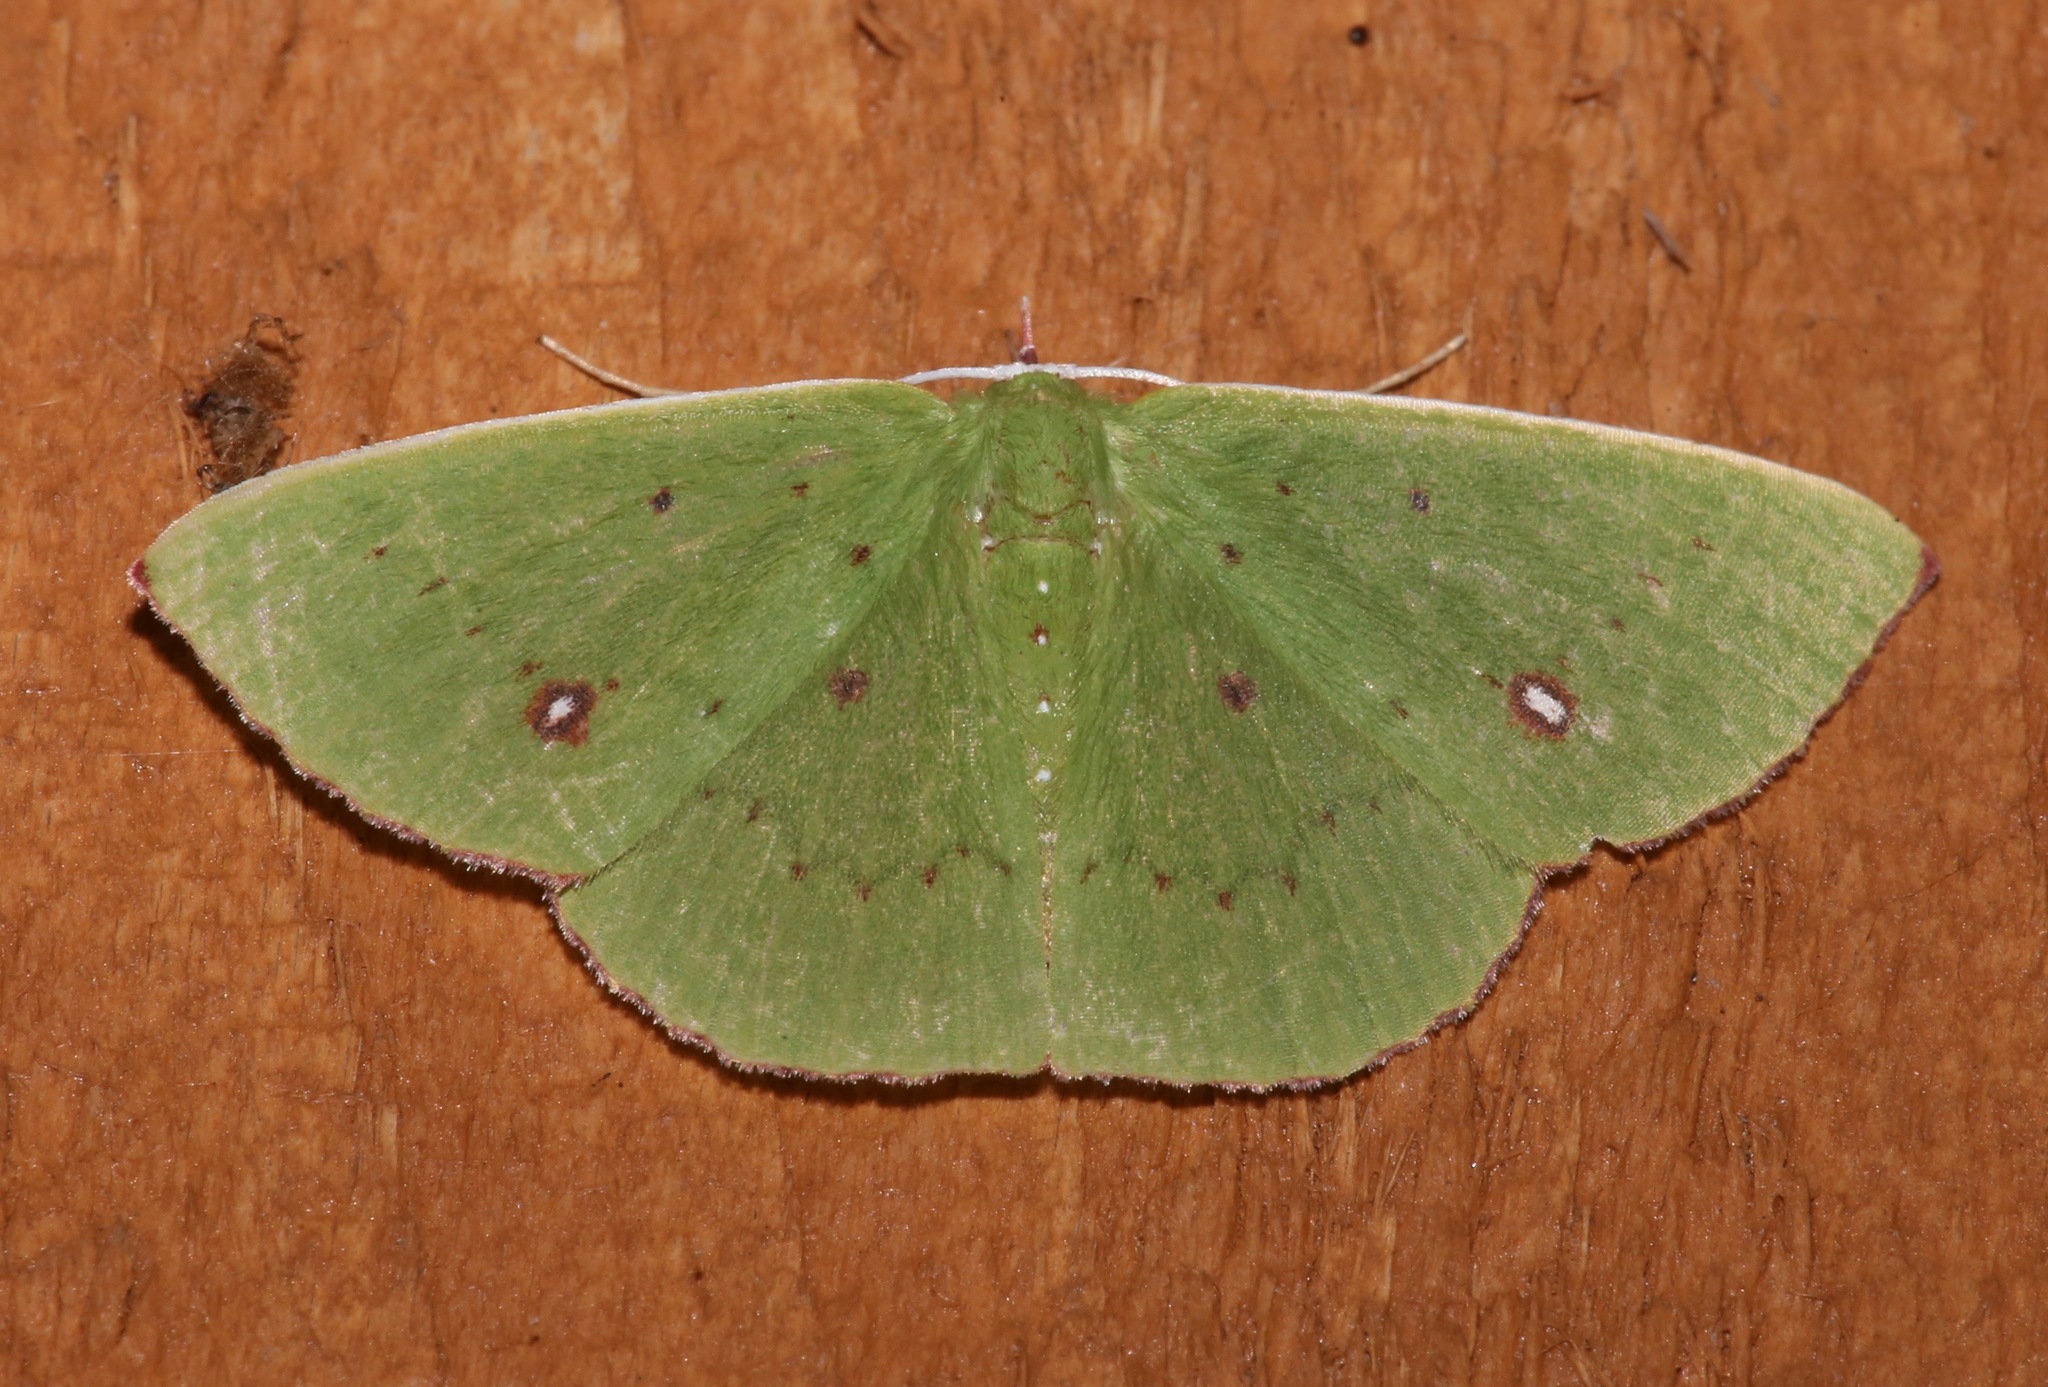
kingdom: Animalia
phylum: Arthropoda
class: Insecta
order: Lepidoptera
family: Geometridae
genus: Phrudocentra
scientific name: Phrudocentra centrifugaria
